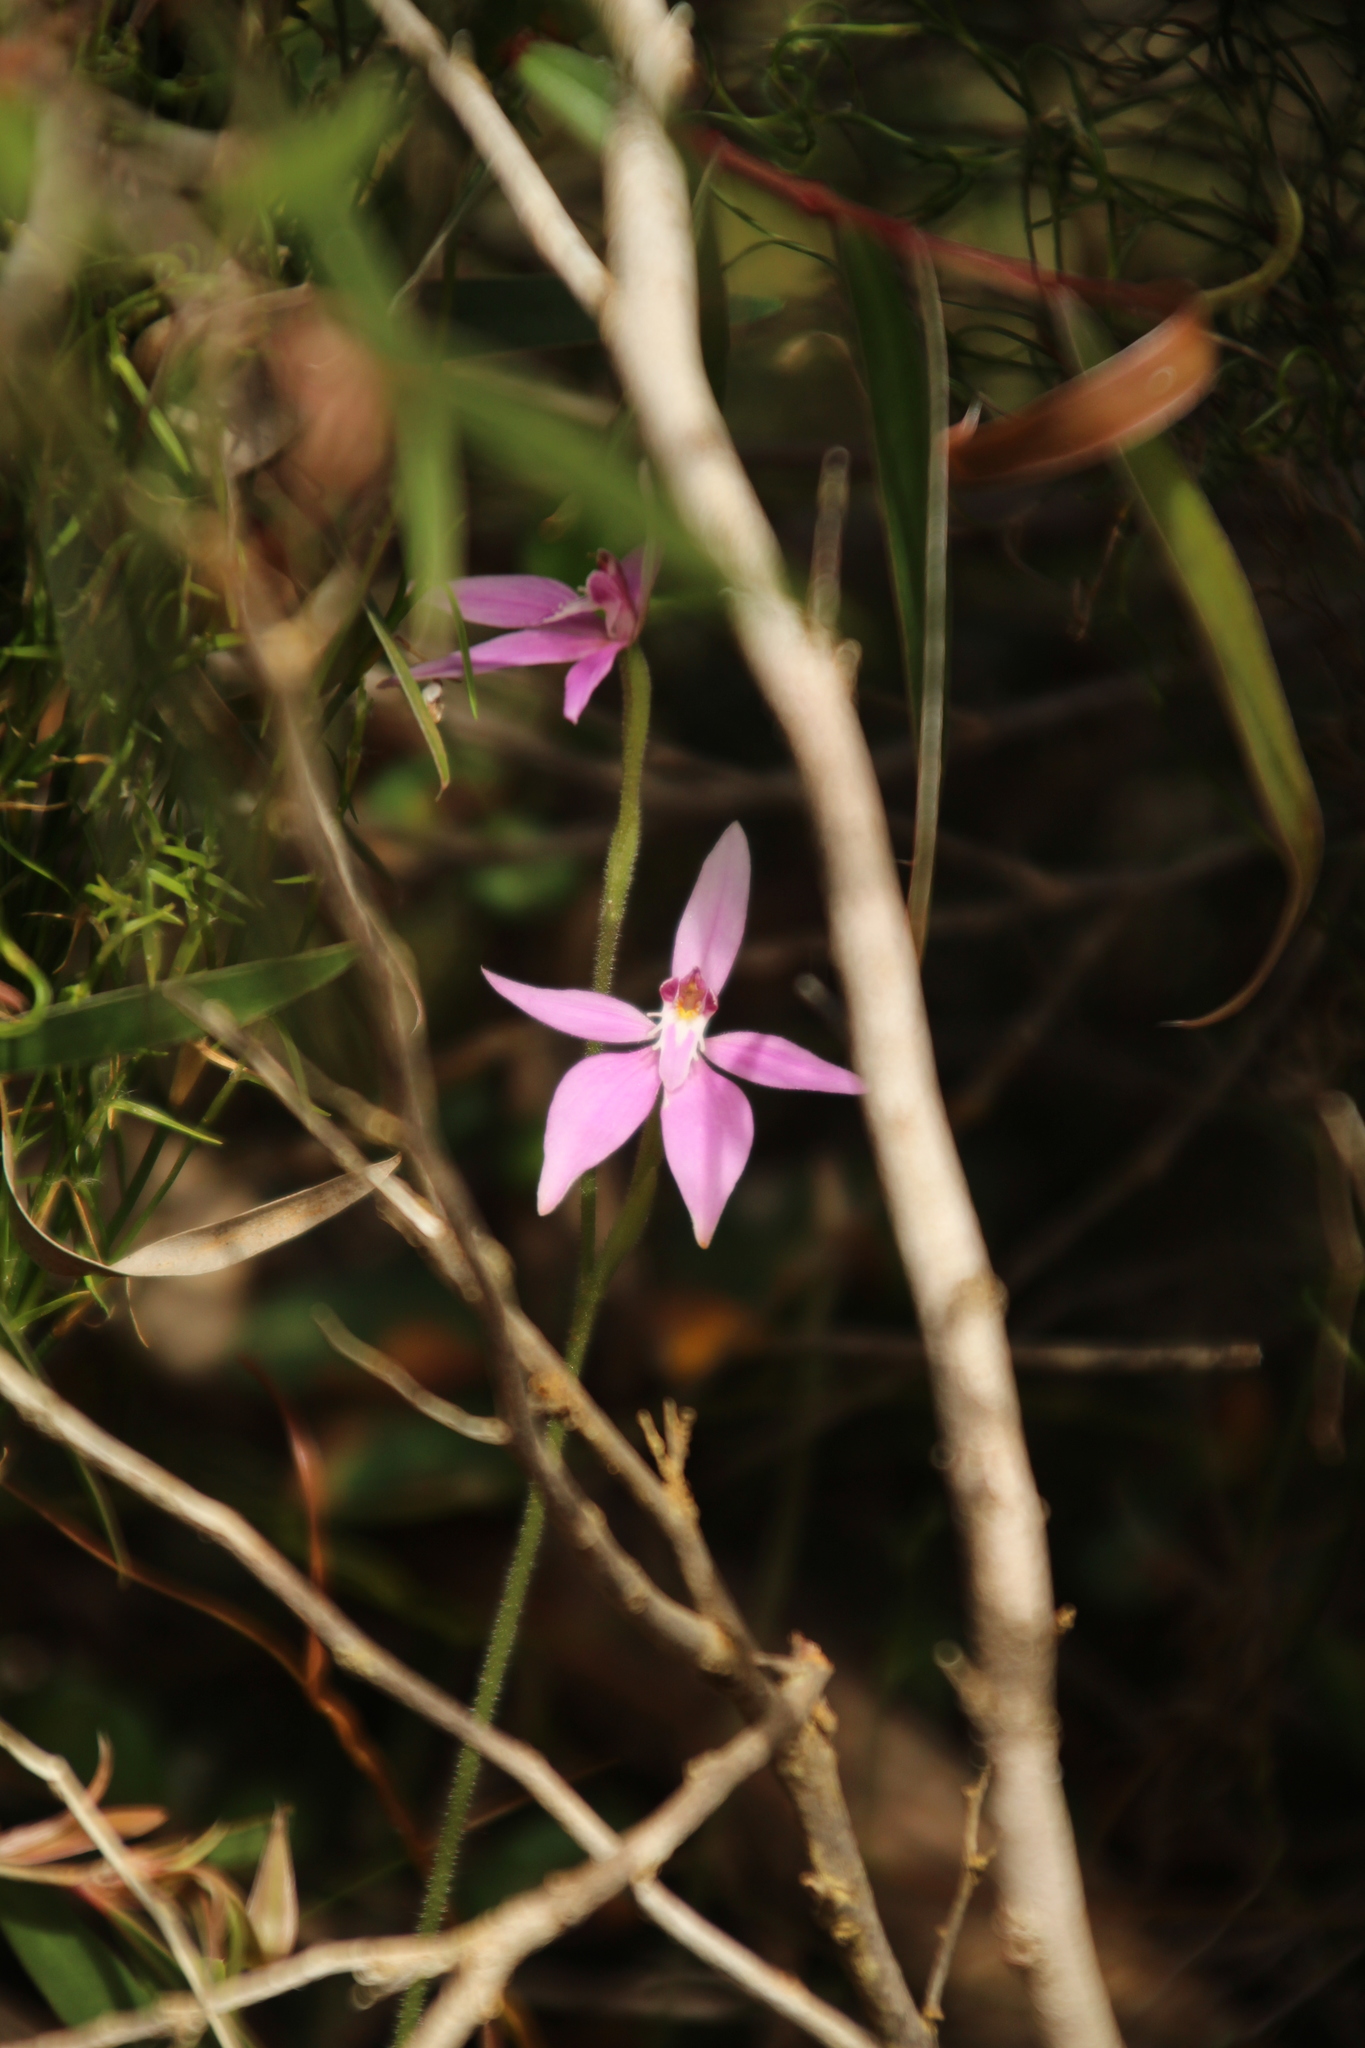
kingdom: Plantae
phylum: Tracheophyta
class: Liliopsida
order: Asparagales
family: Orchidaceae
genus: Caladenia
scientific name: Caladenia latifolia
